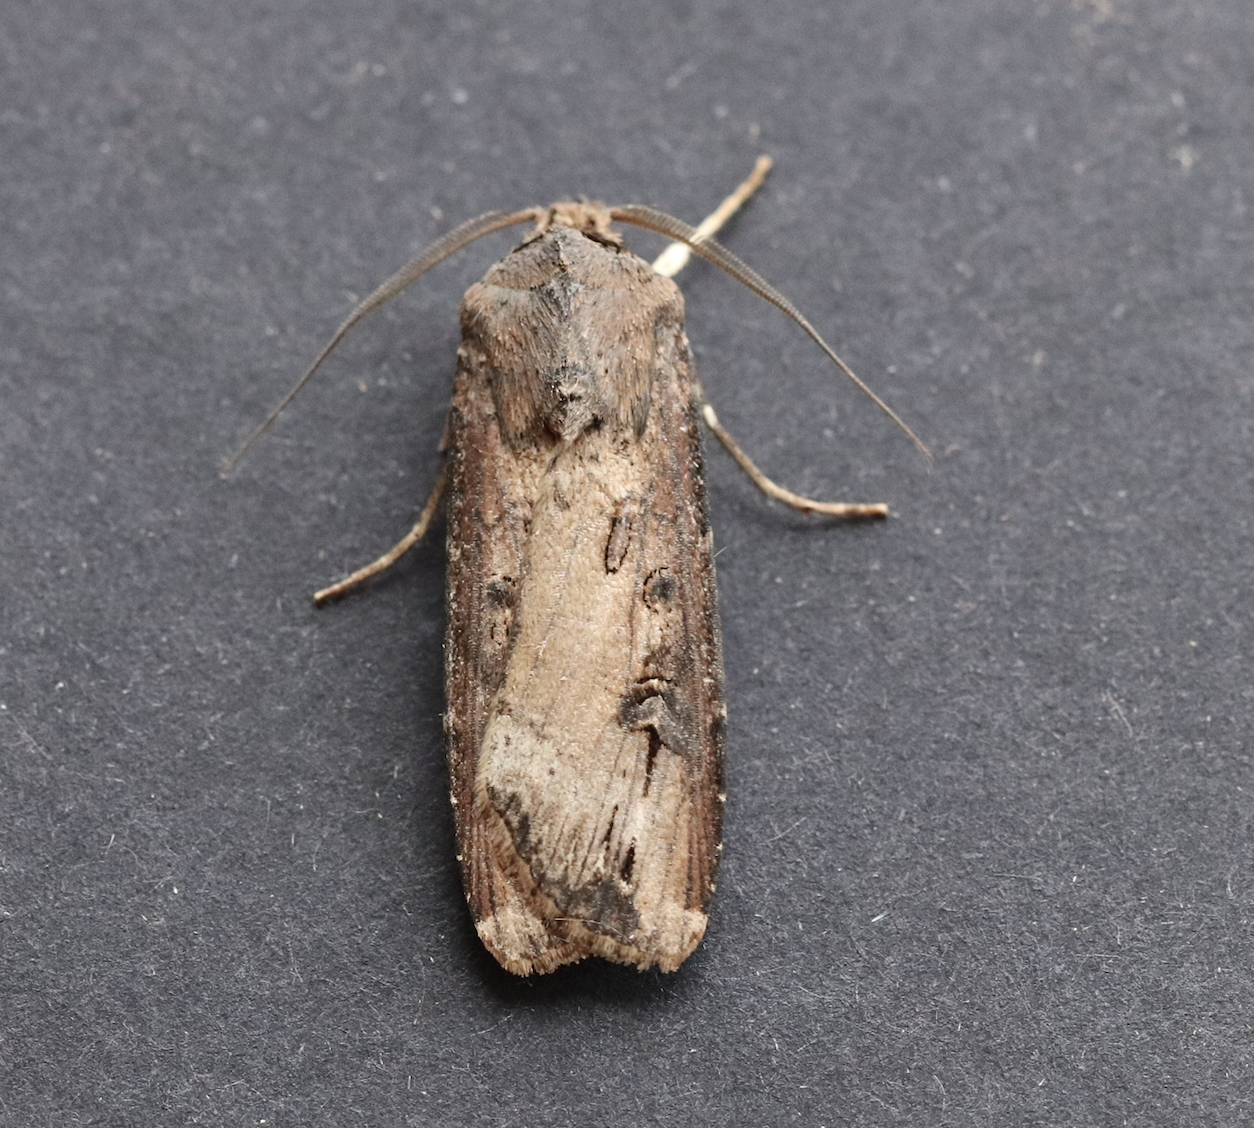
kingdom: Animalia
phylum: Arthropoda
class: Insecta
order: Lepidoptera
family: Noctuidae
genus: Agrotis
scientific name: Agrotis ipsilon
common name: Dark sword-grass
